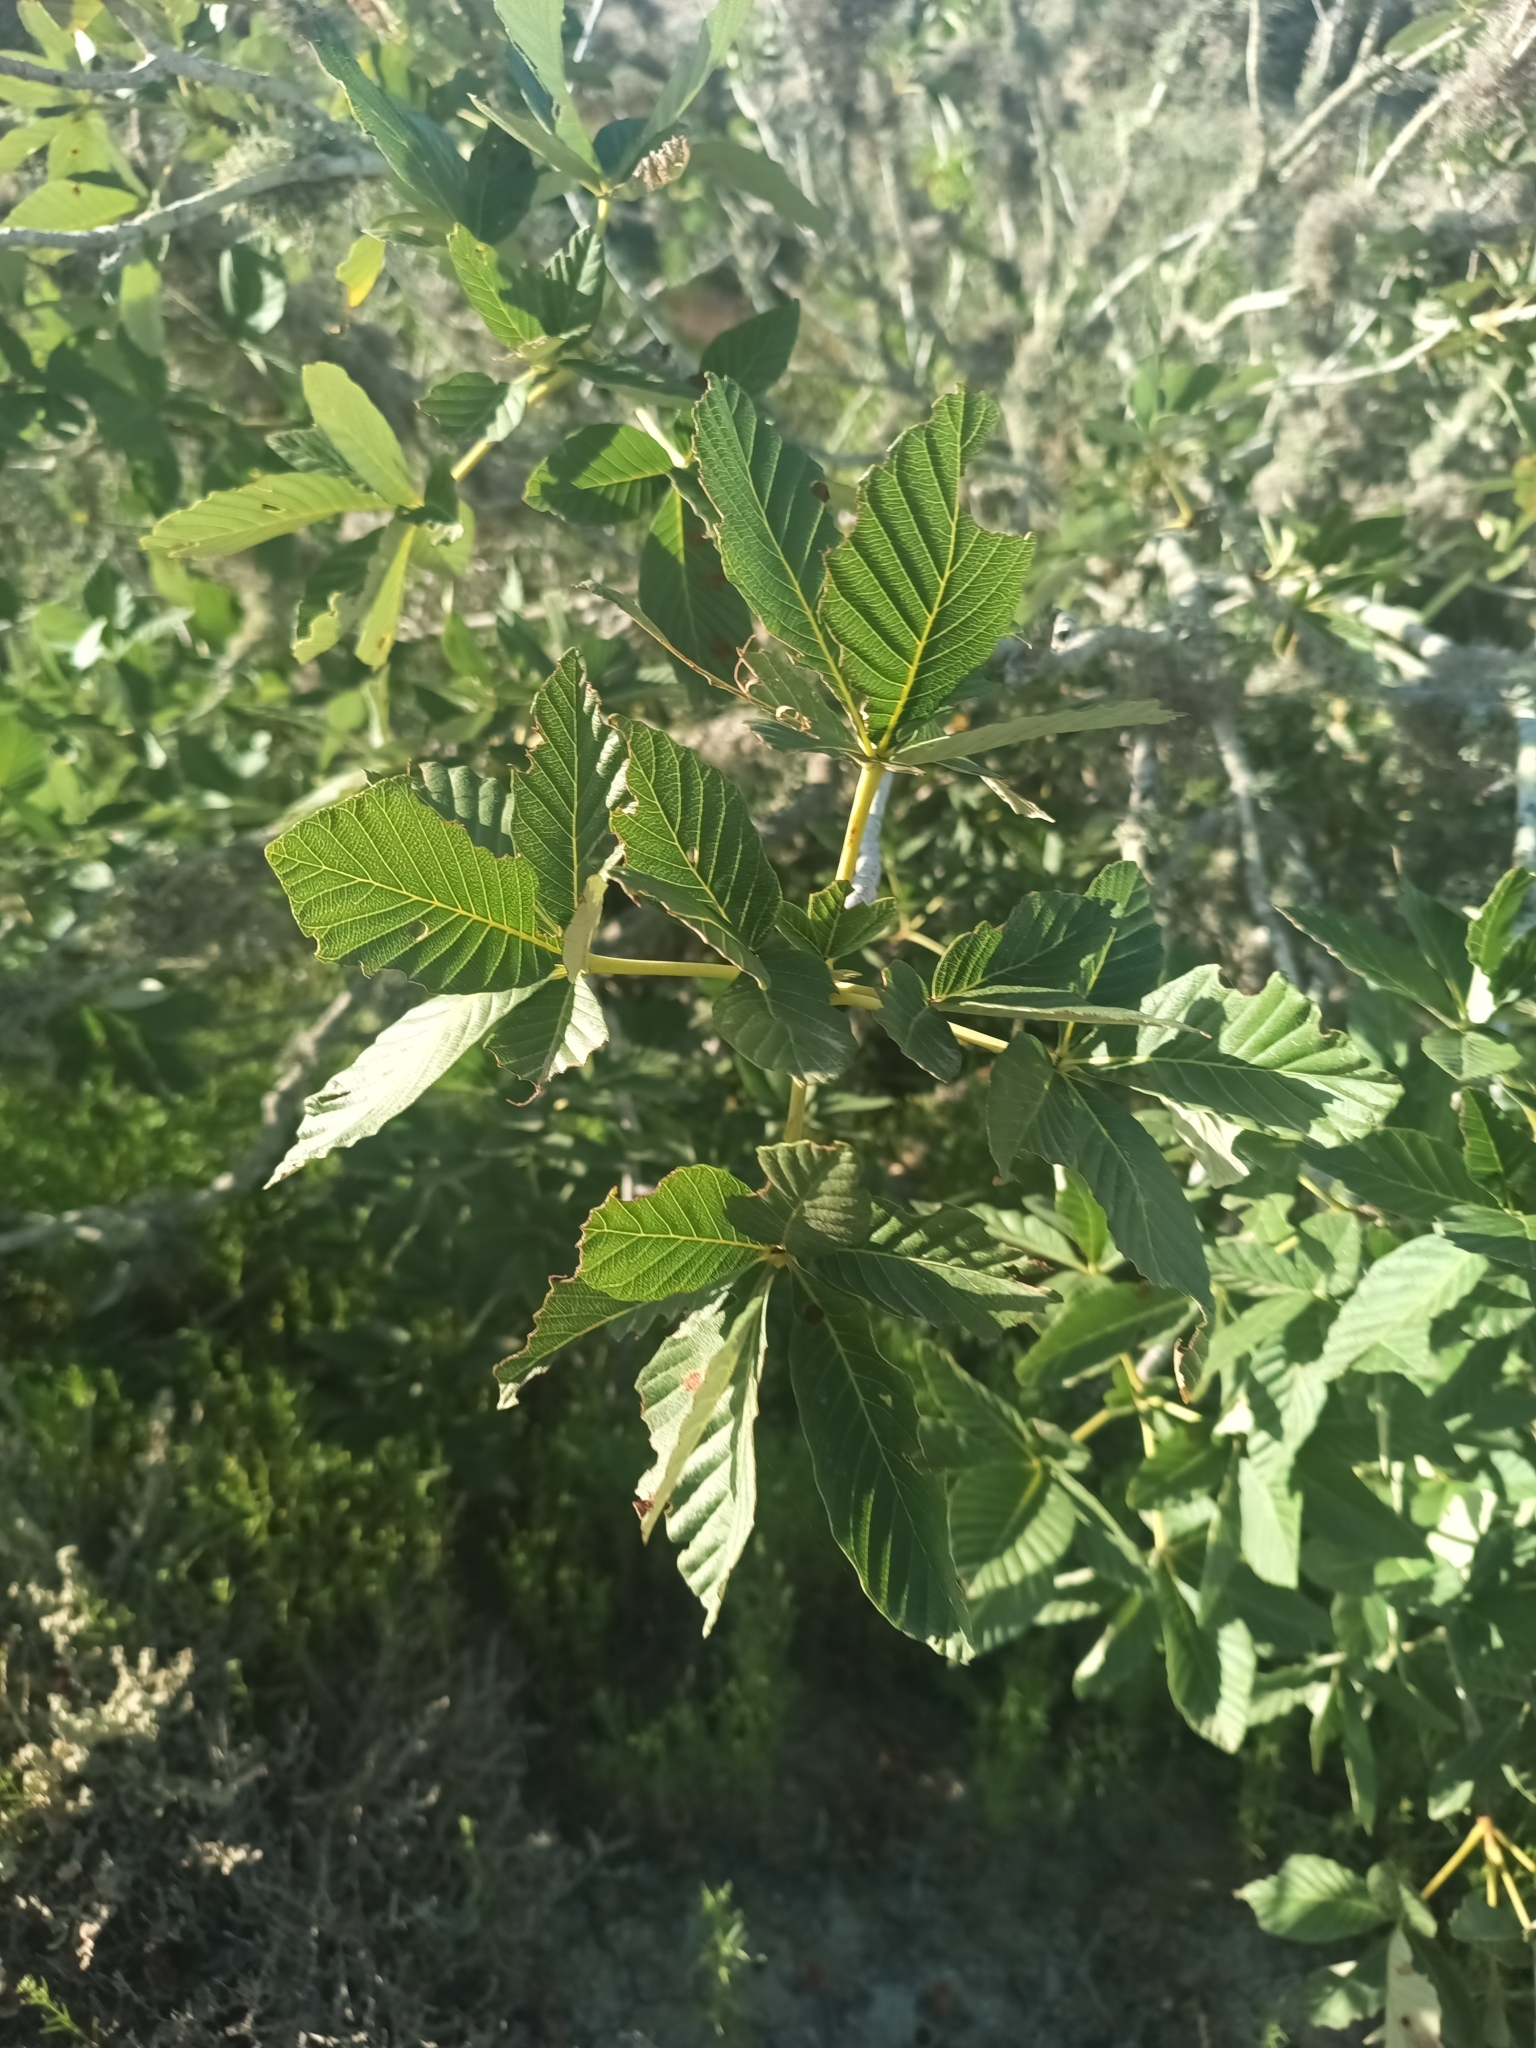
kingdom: Plantae
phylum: Tracheophyta
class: Magnoliopsida
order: Sapindales
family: Sapindaceae
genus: Aesculus
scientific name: Aesculus parryi
